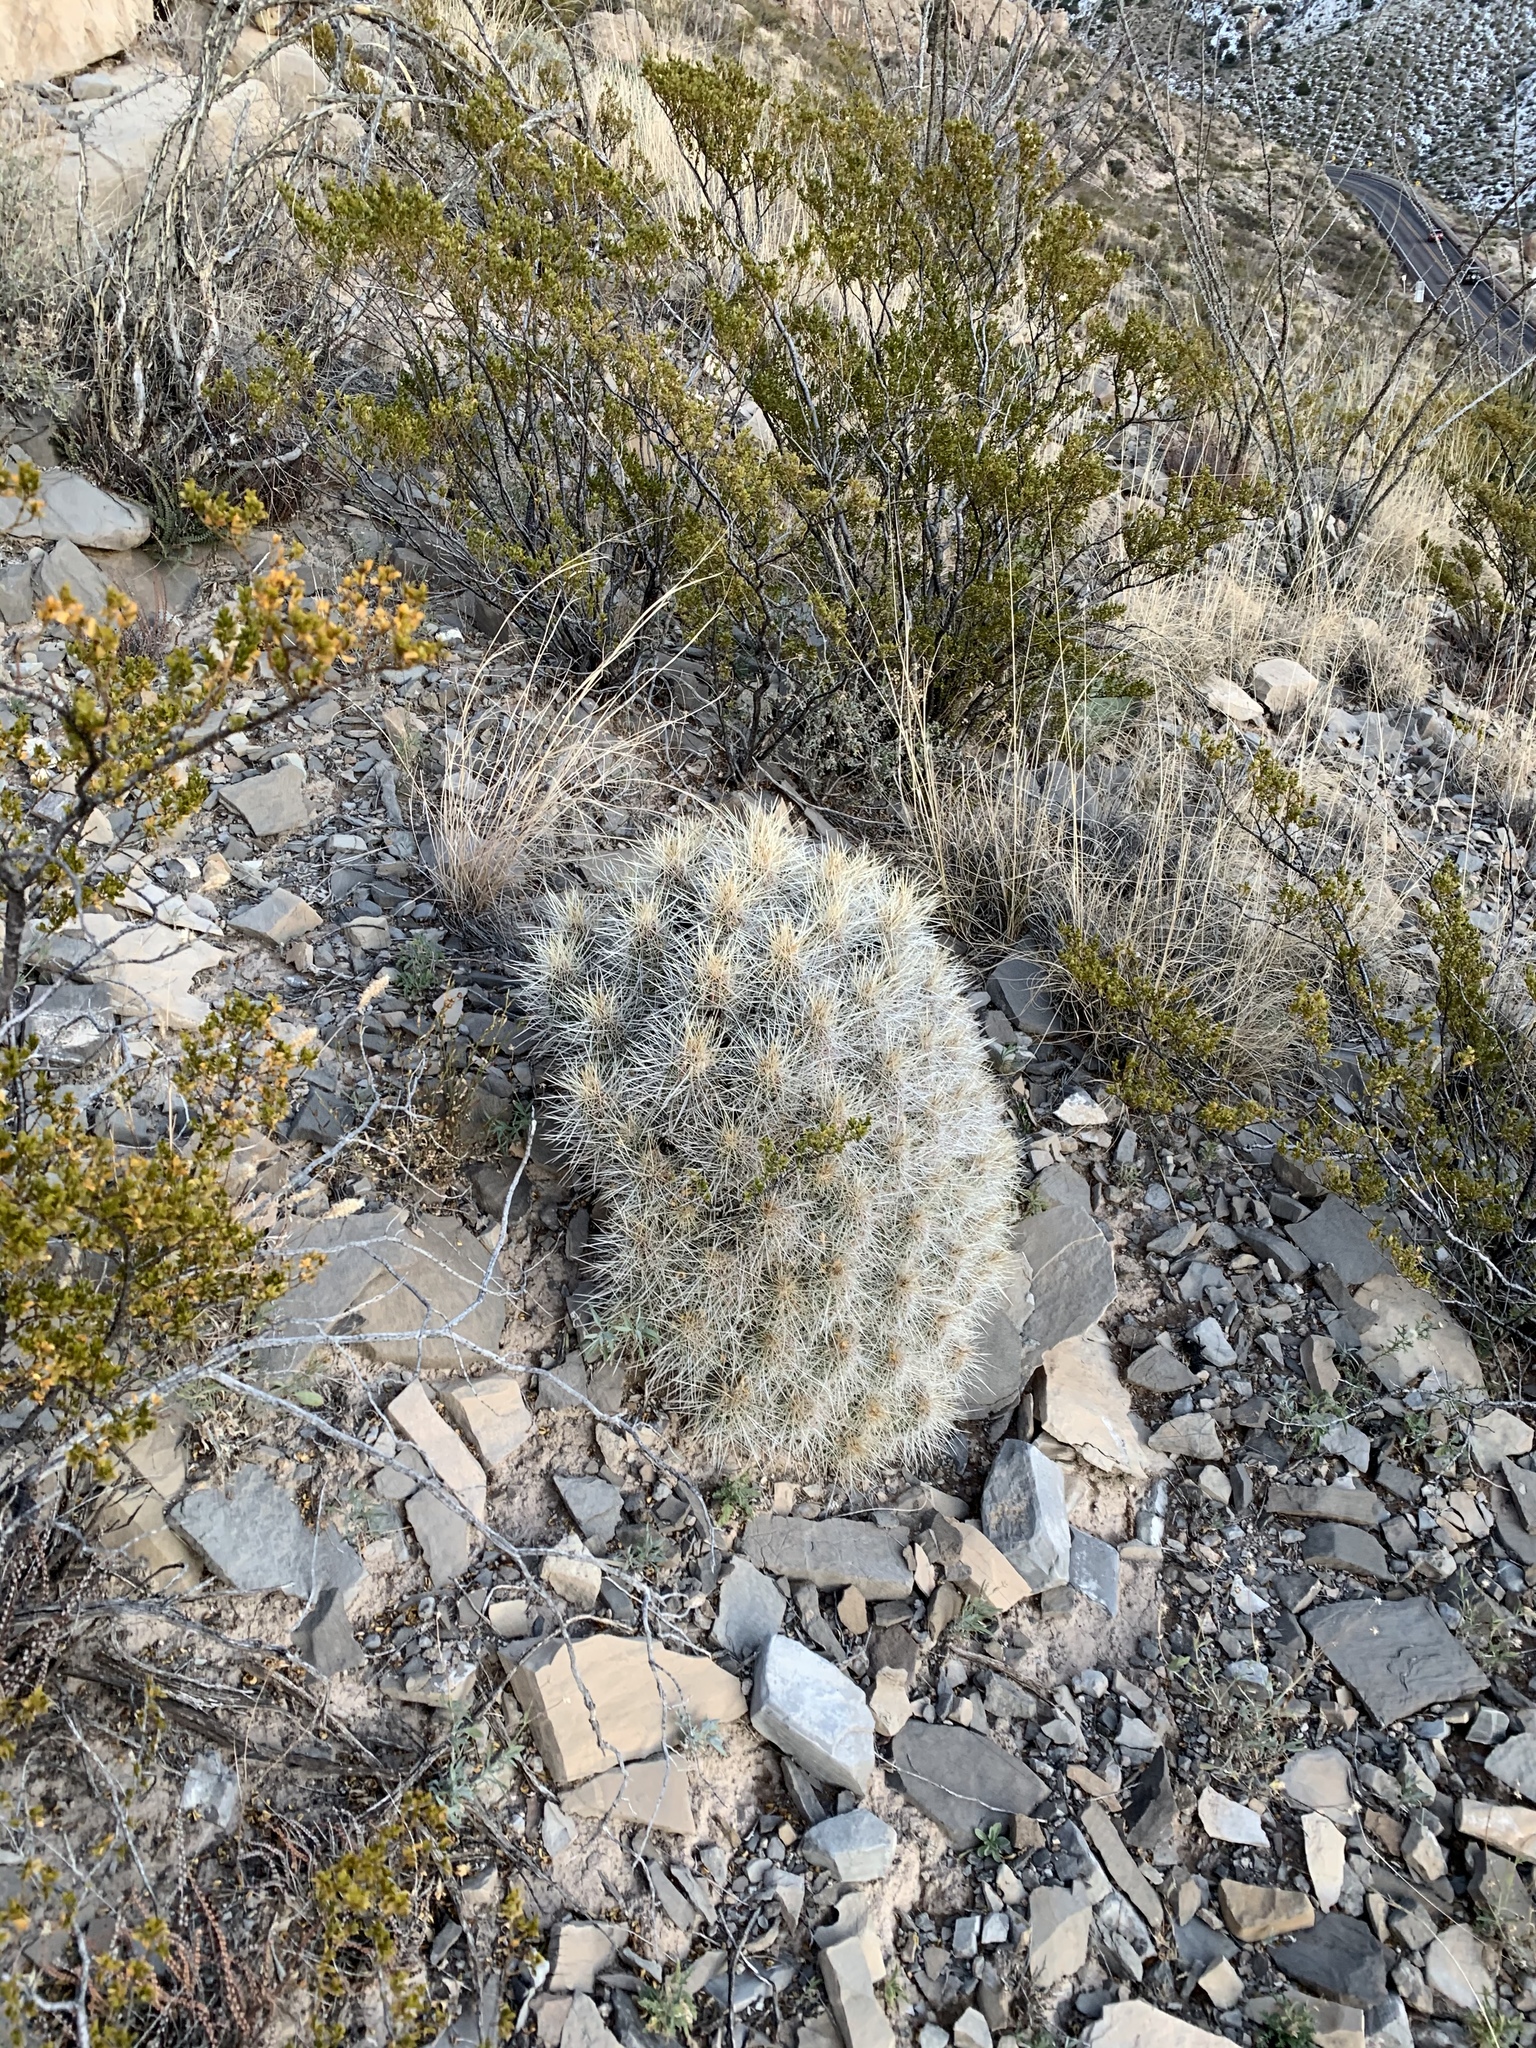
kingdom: Plantae
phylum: Tracheophyta
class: Magnoliopsida
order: Caryophyllales
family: Cactaceae
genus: Echinocereus
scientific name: Echinocereus stramineus
